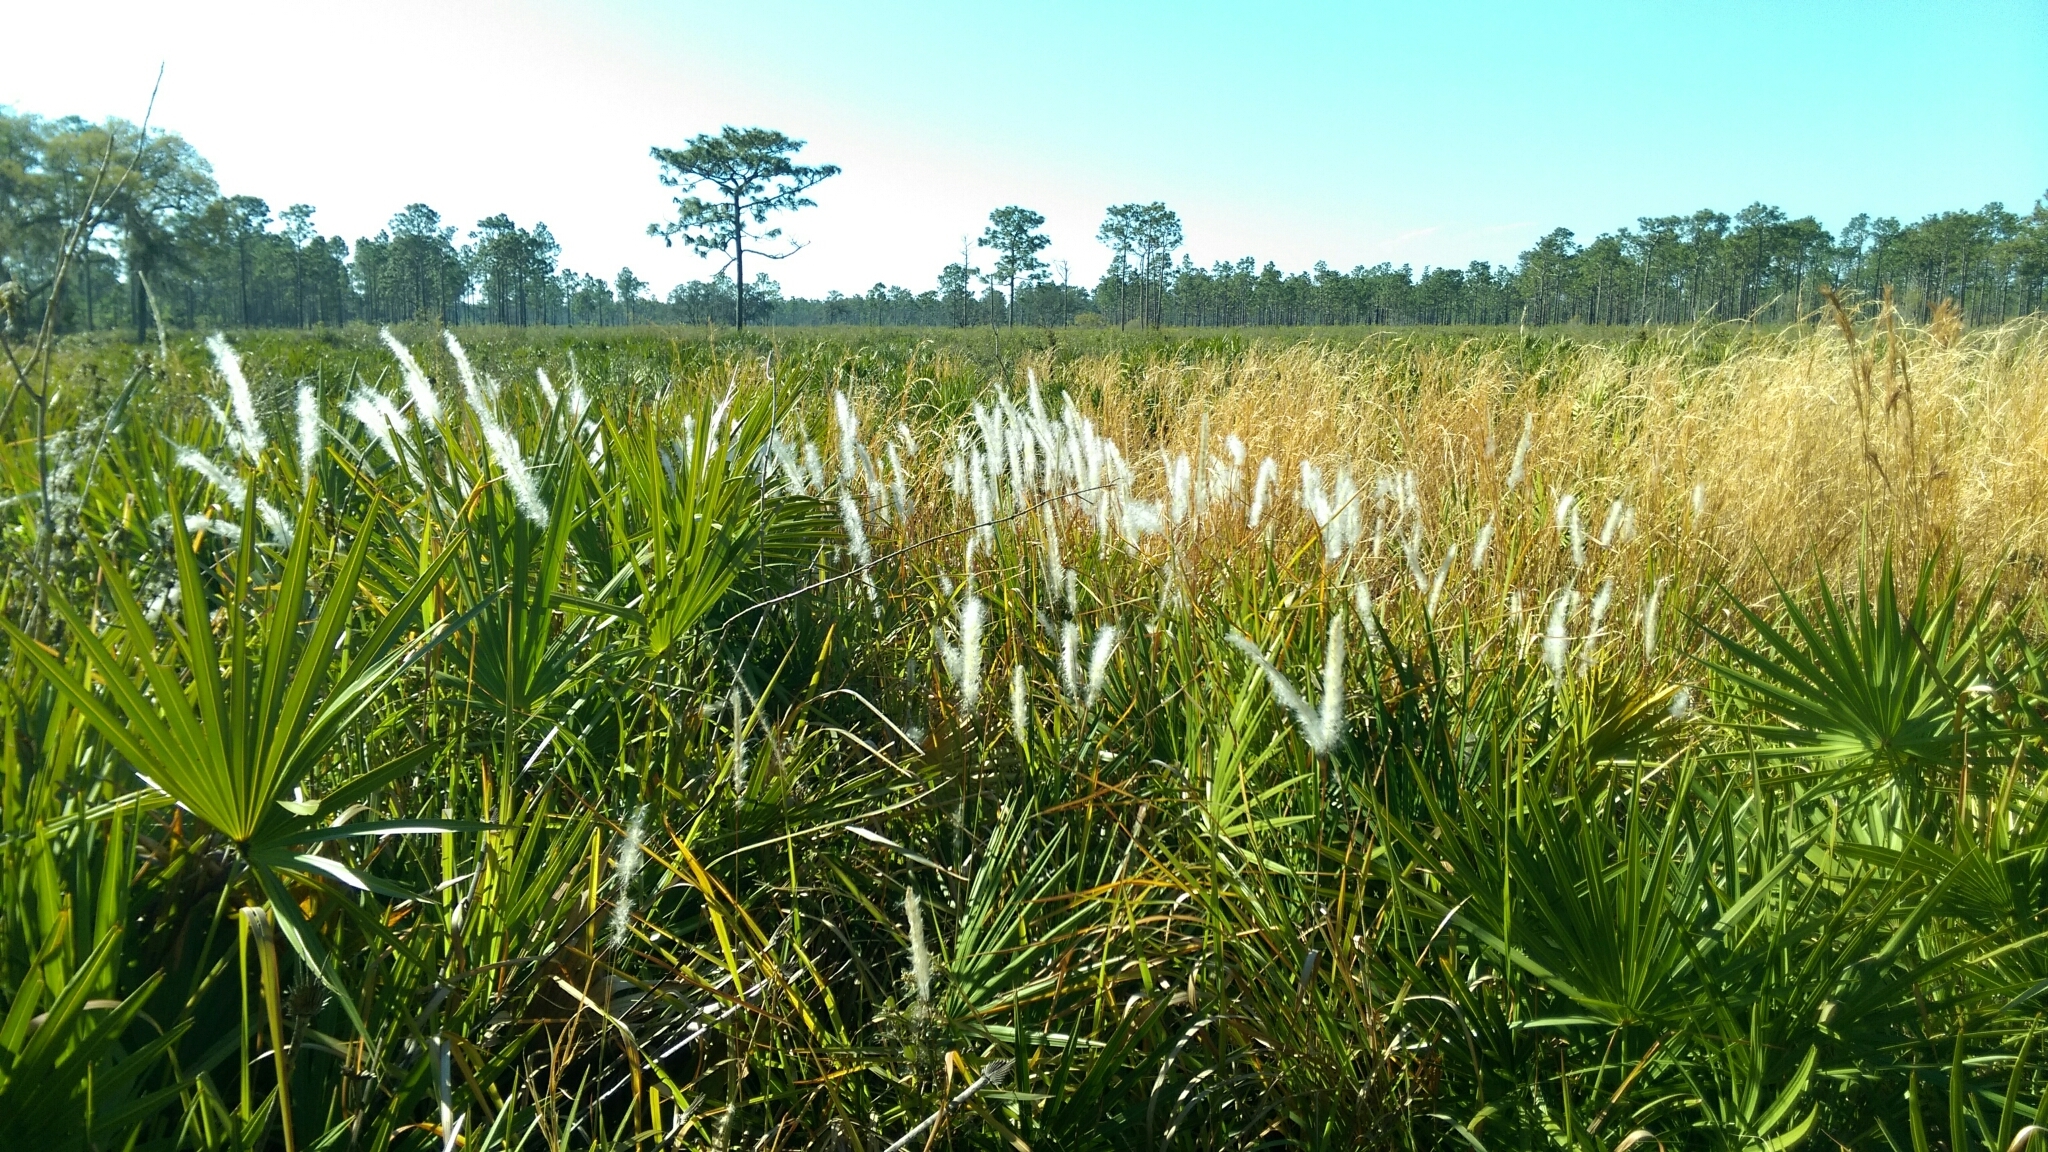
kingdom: Plantae
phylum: Tracheophyta
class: Liliopsida
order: Poales
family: Poaceae
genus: Imperata
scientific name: Imperata cylindrica
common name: Cogongrass
